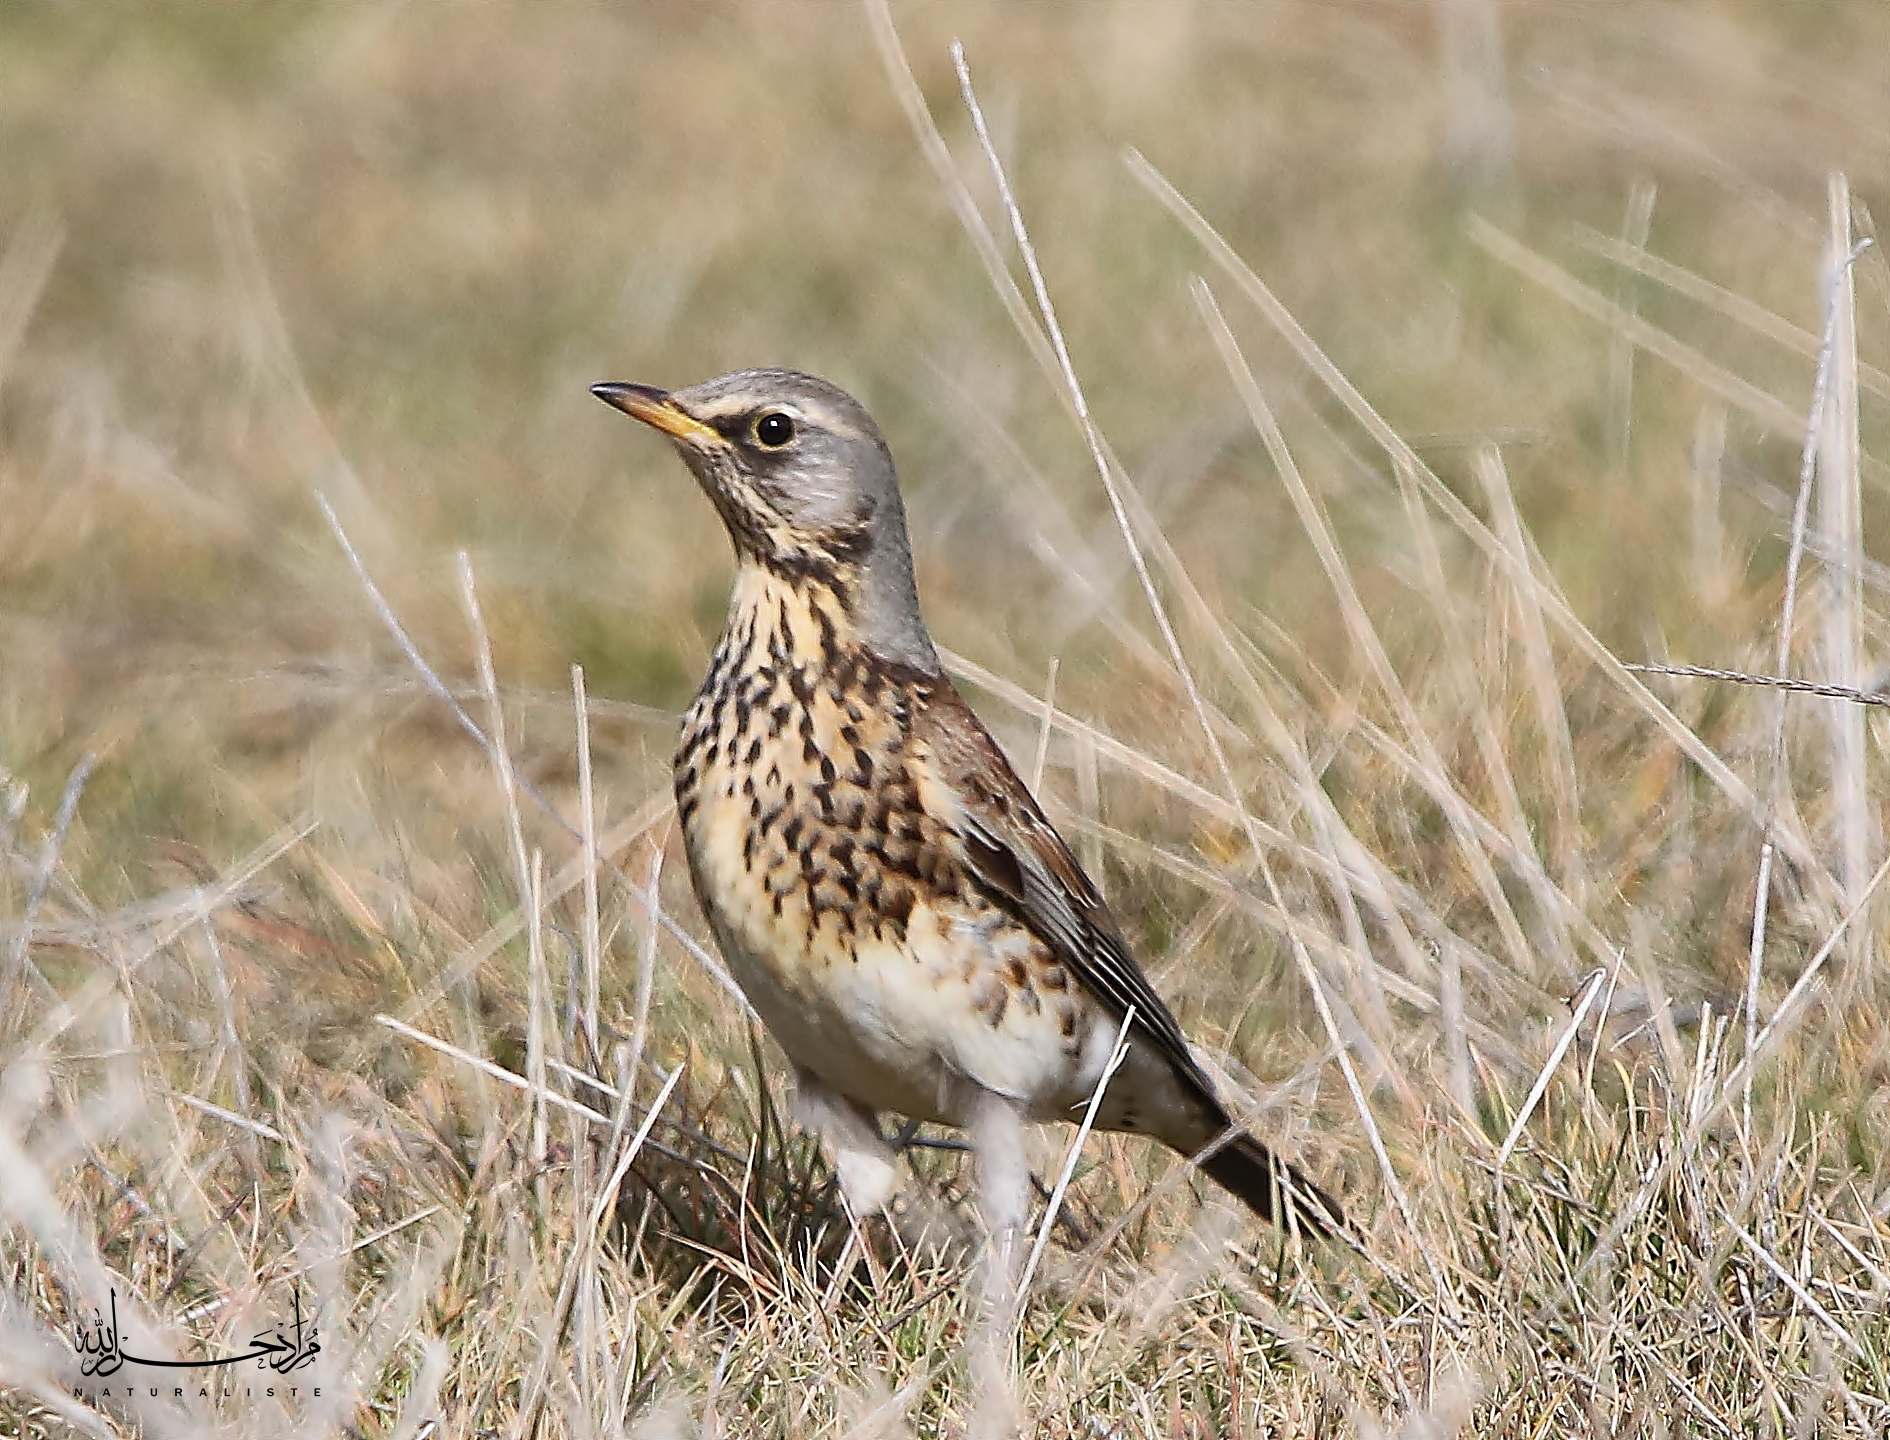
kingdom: Animalia
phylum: Chordata
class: Aves
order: Passeriformes
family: Turdidae
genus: Turdus
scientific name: Turdus pilaris
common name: Fieldfare
